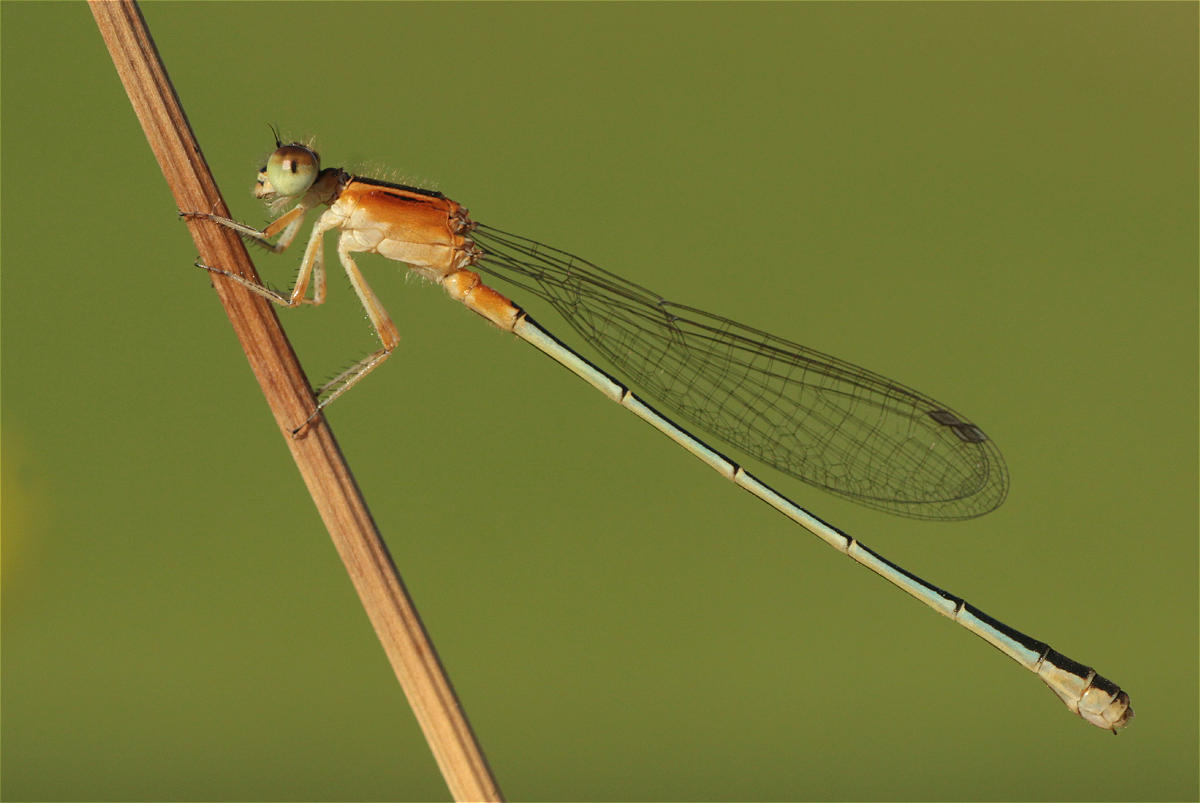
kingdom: Animalia
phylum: Arthropoda
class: Insecta
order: Odonata
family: Coenagrionidae
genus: Ischnura
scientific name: Ischnura senegalensis
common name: Tropical bluetail
